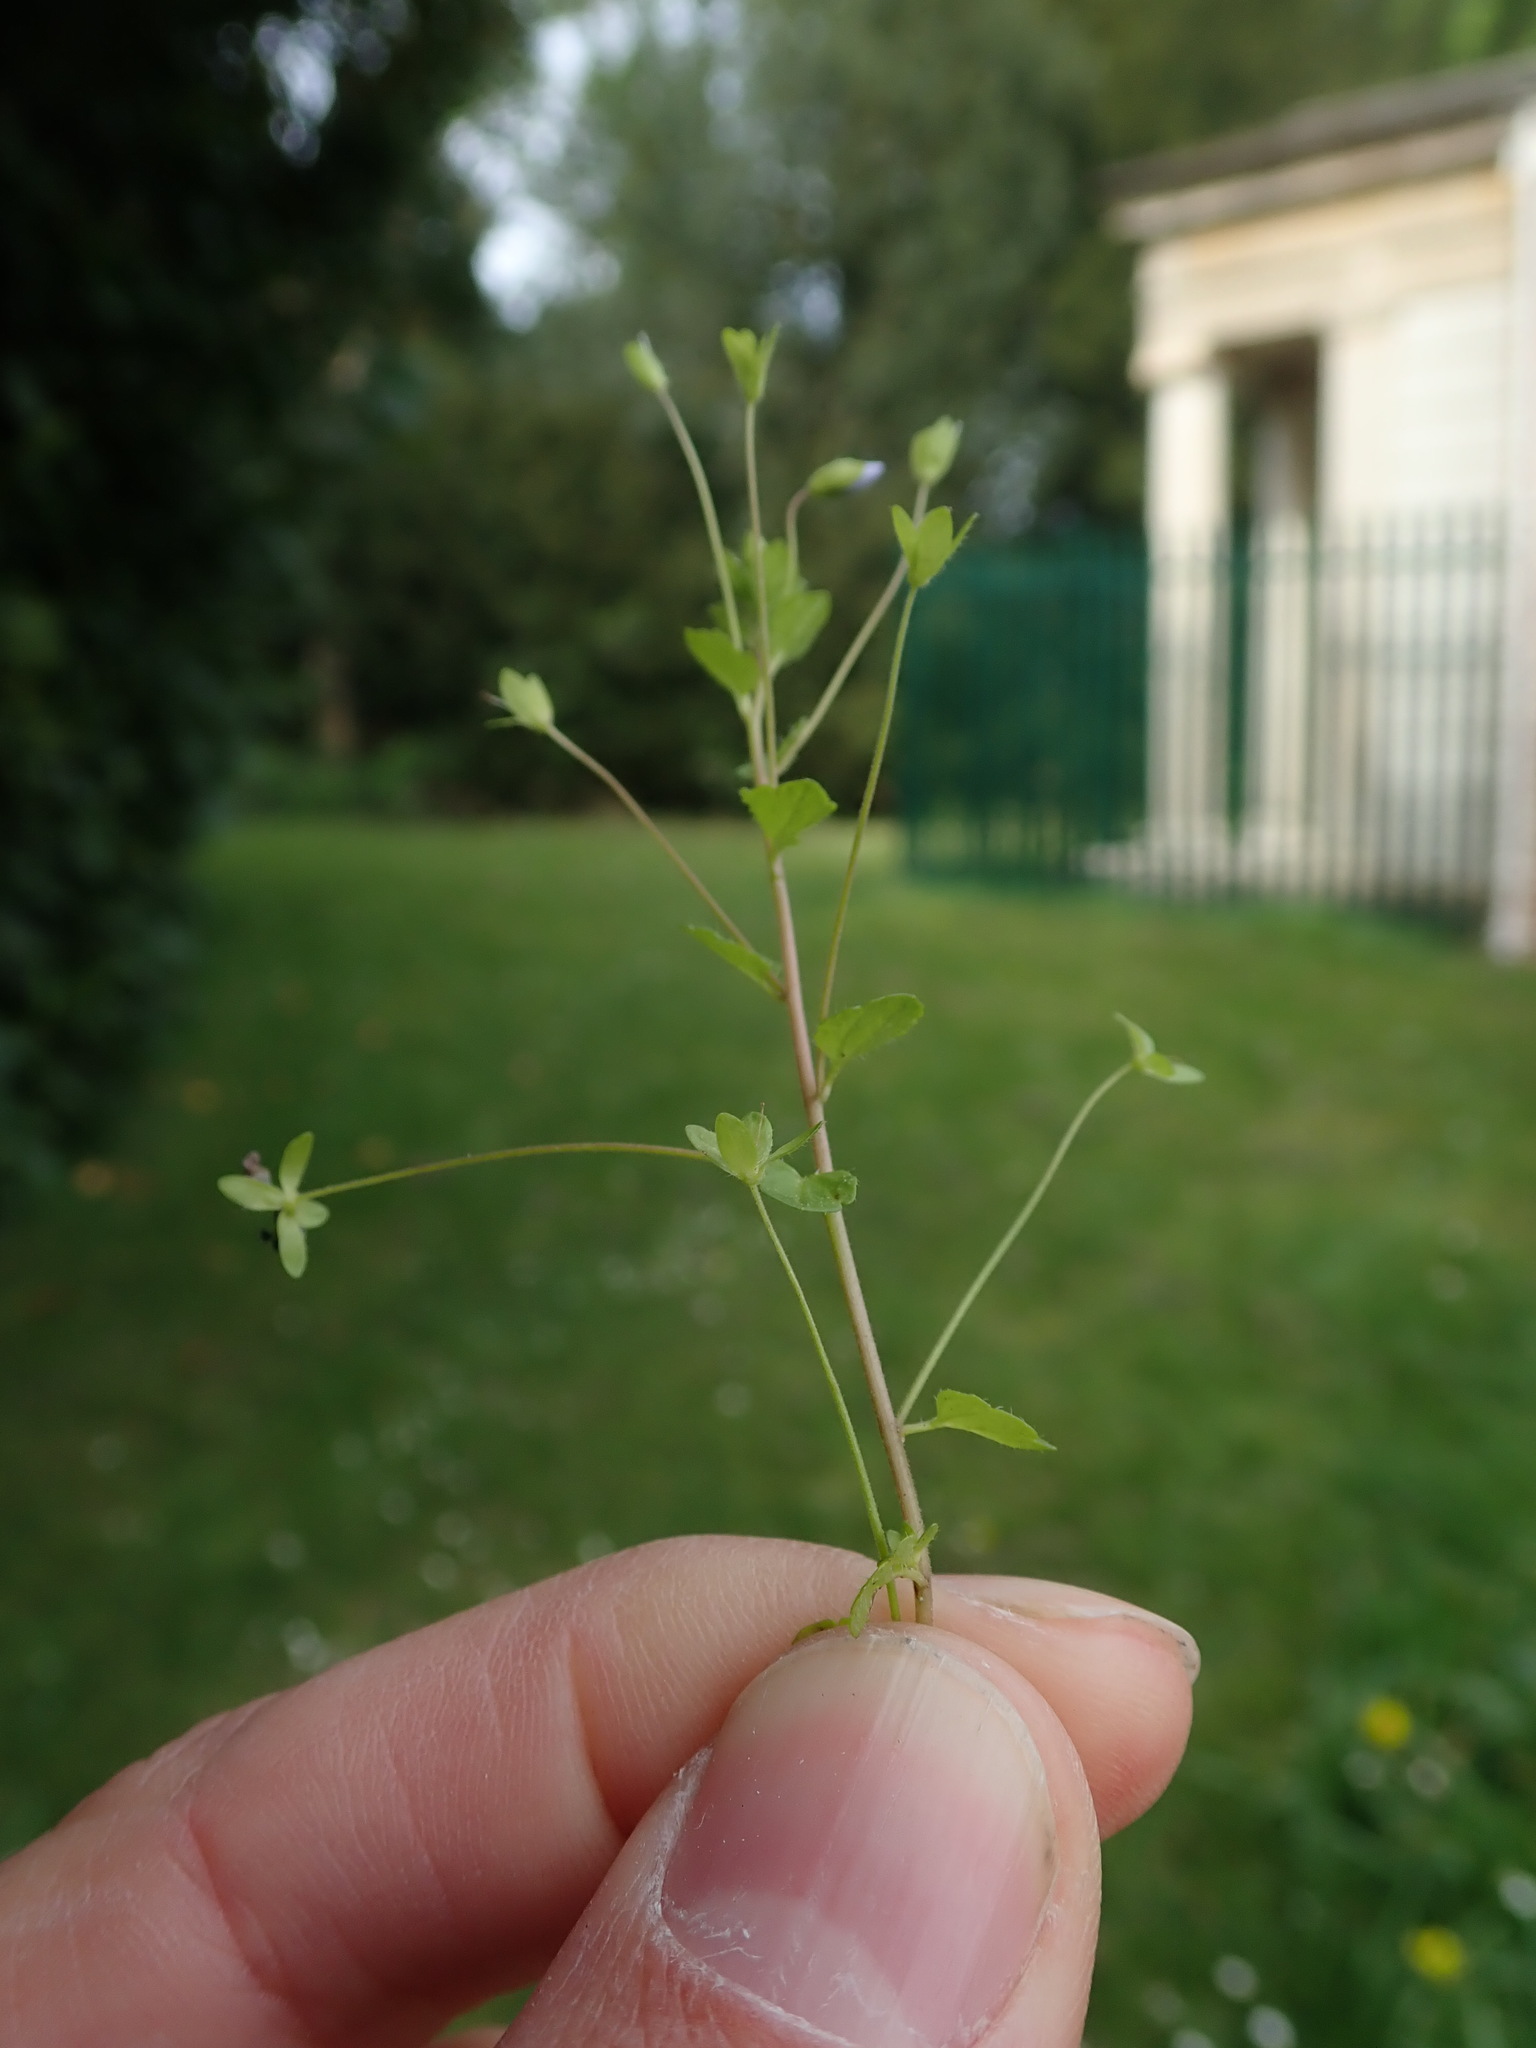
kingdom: Plantae
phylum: Tracheophyta
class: Magnoliopsida
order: Lamiales
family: Plantaginaceae
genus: Veronica
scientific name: Veronica filiformis
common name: Slender speedwell
